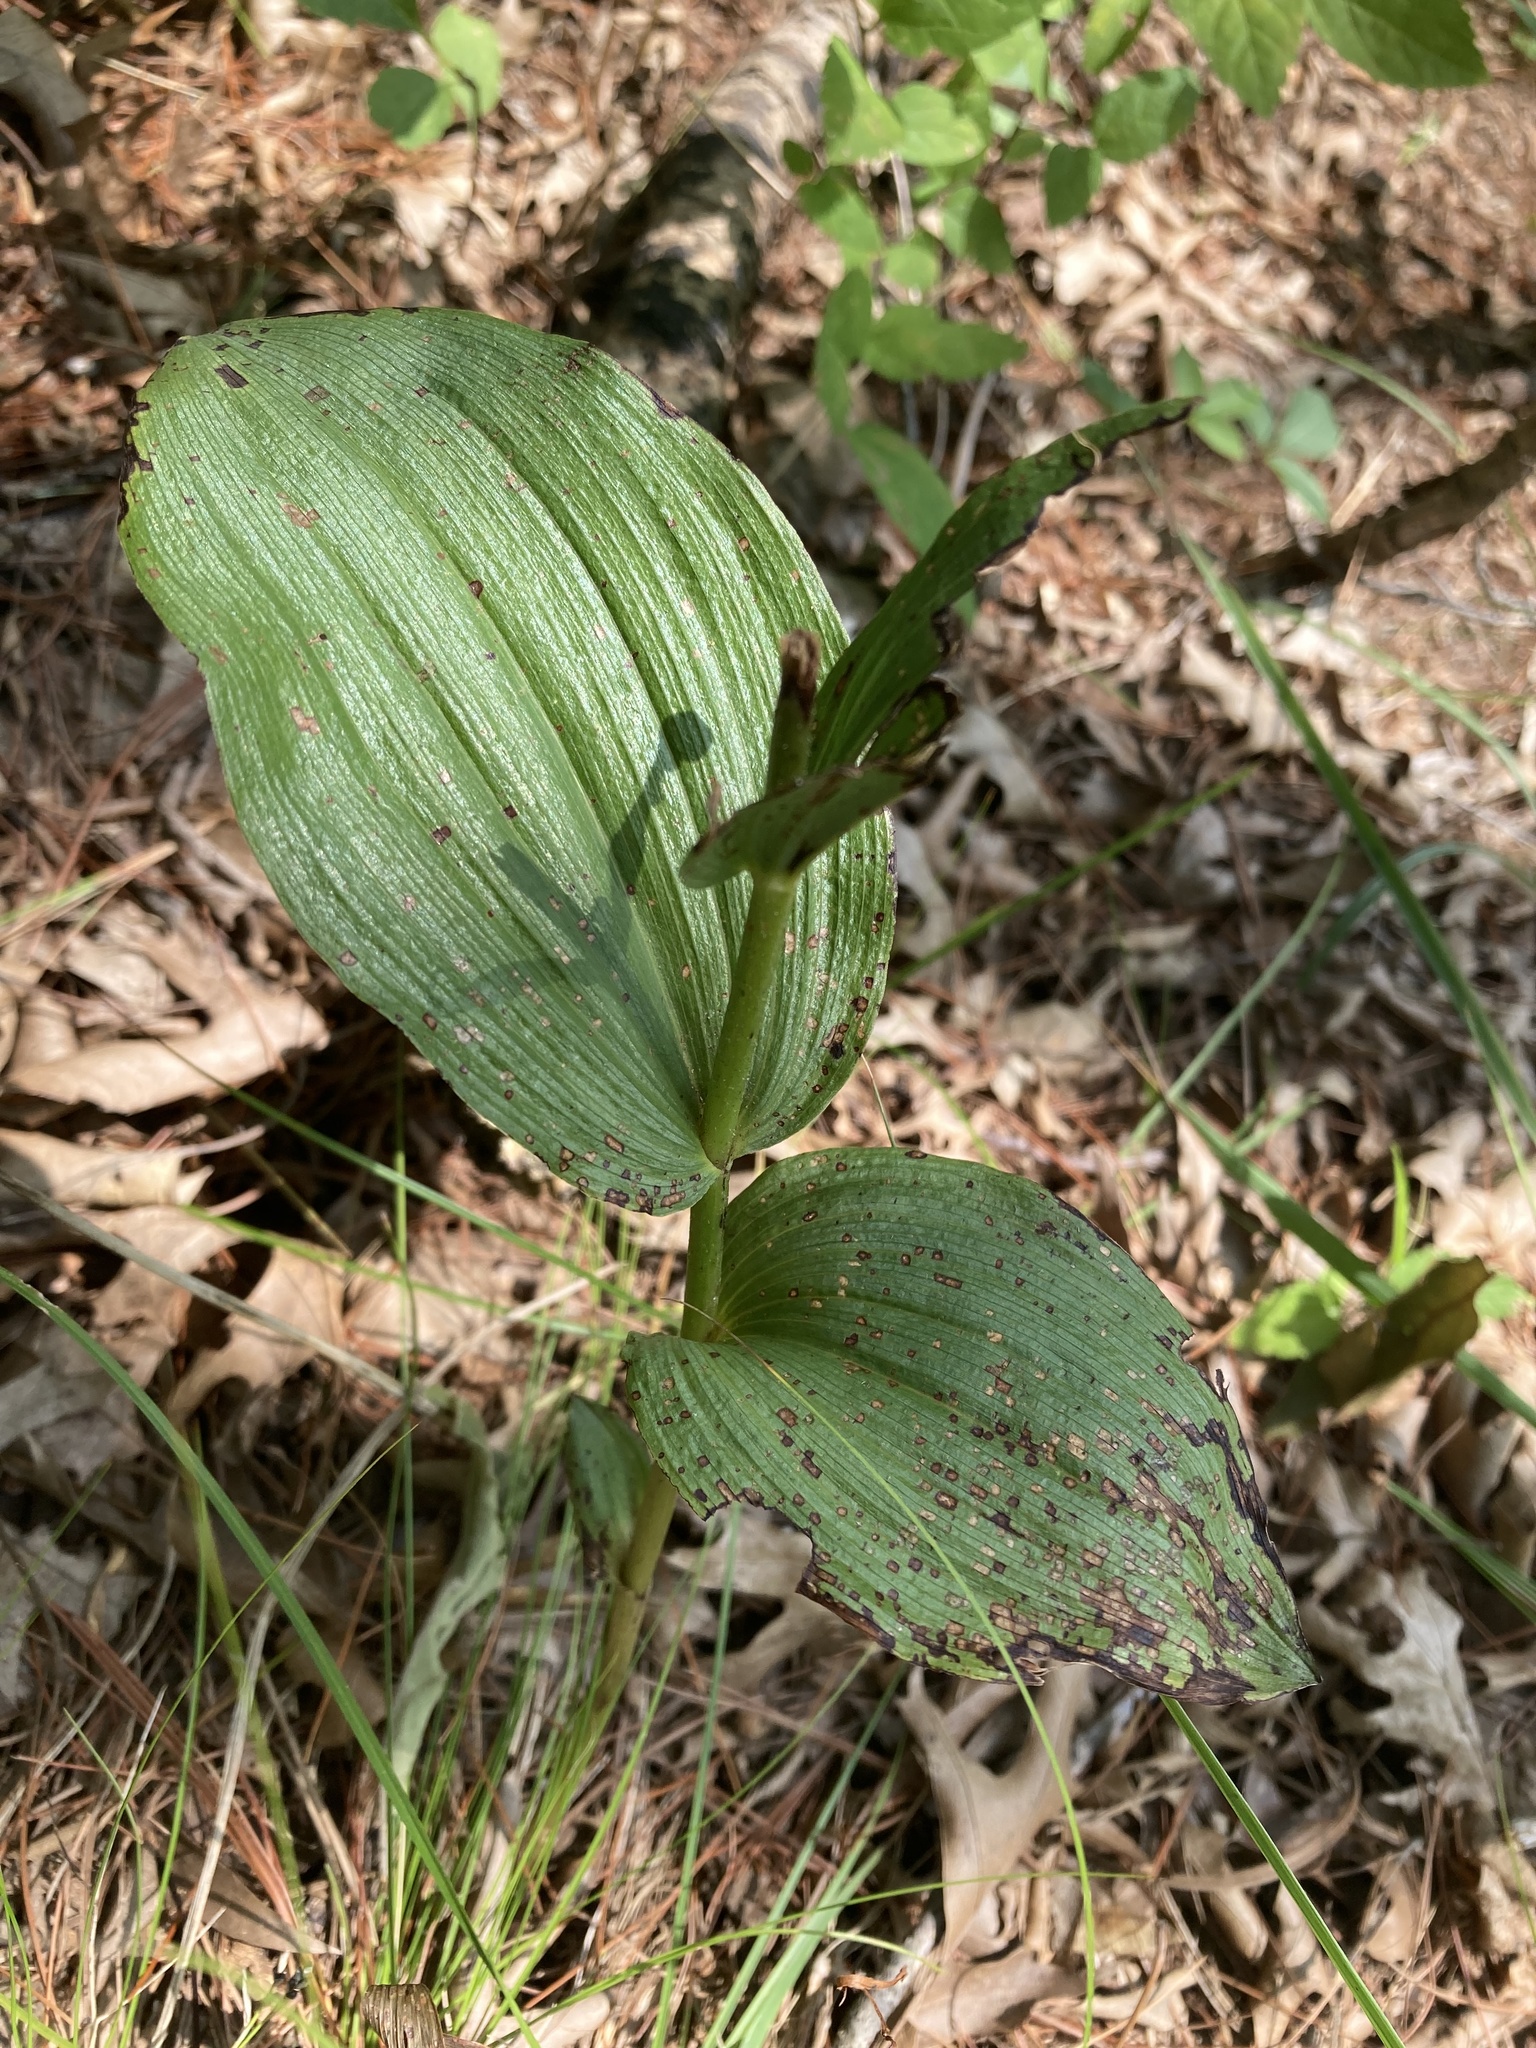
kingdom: Plantae
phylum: Tracheophyta
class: Liliopsida
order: Asparagales
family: Orchidaceae
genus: Epipactis
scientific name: Epipactis helleborine
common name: Broad-leaved helleborine
